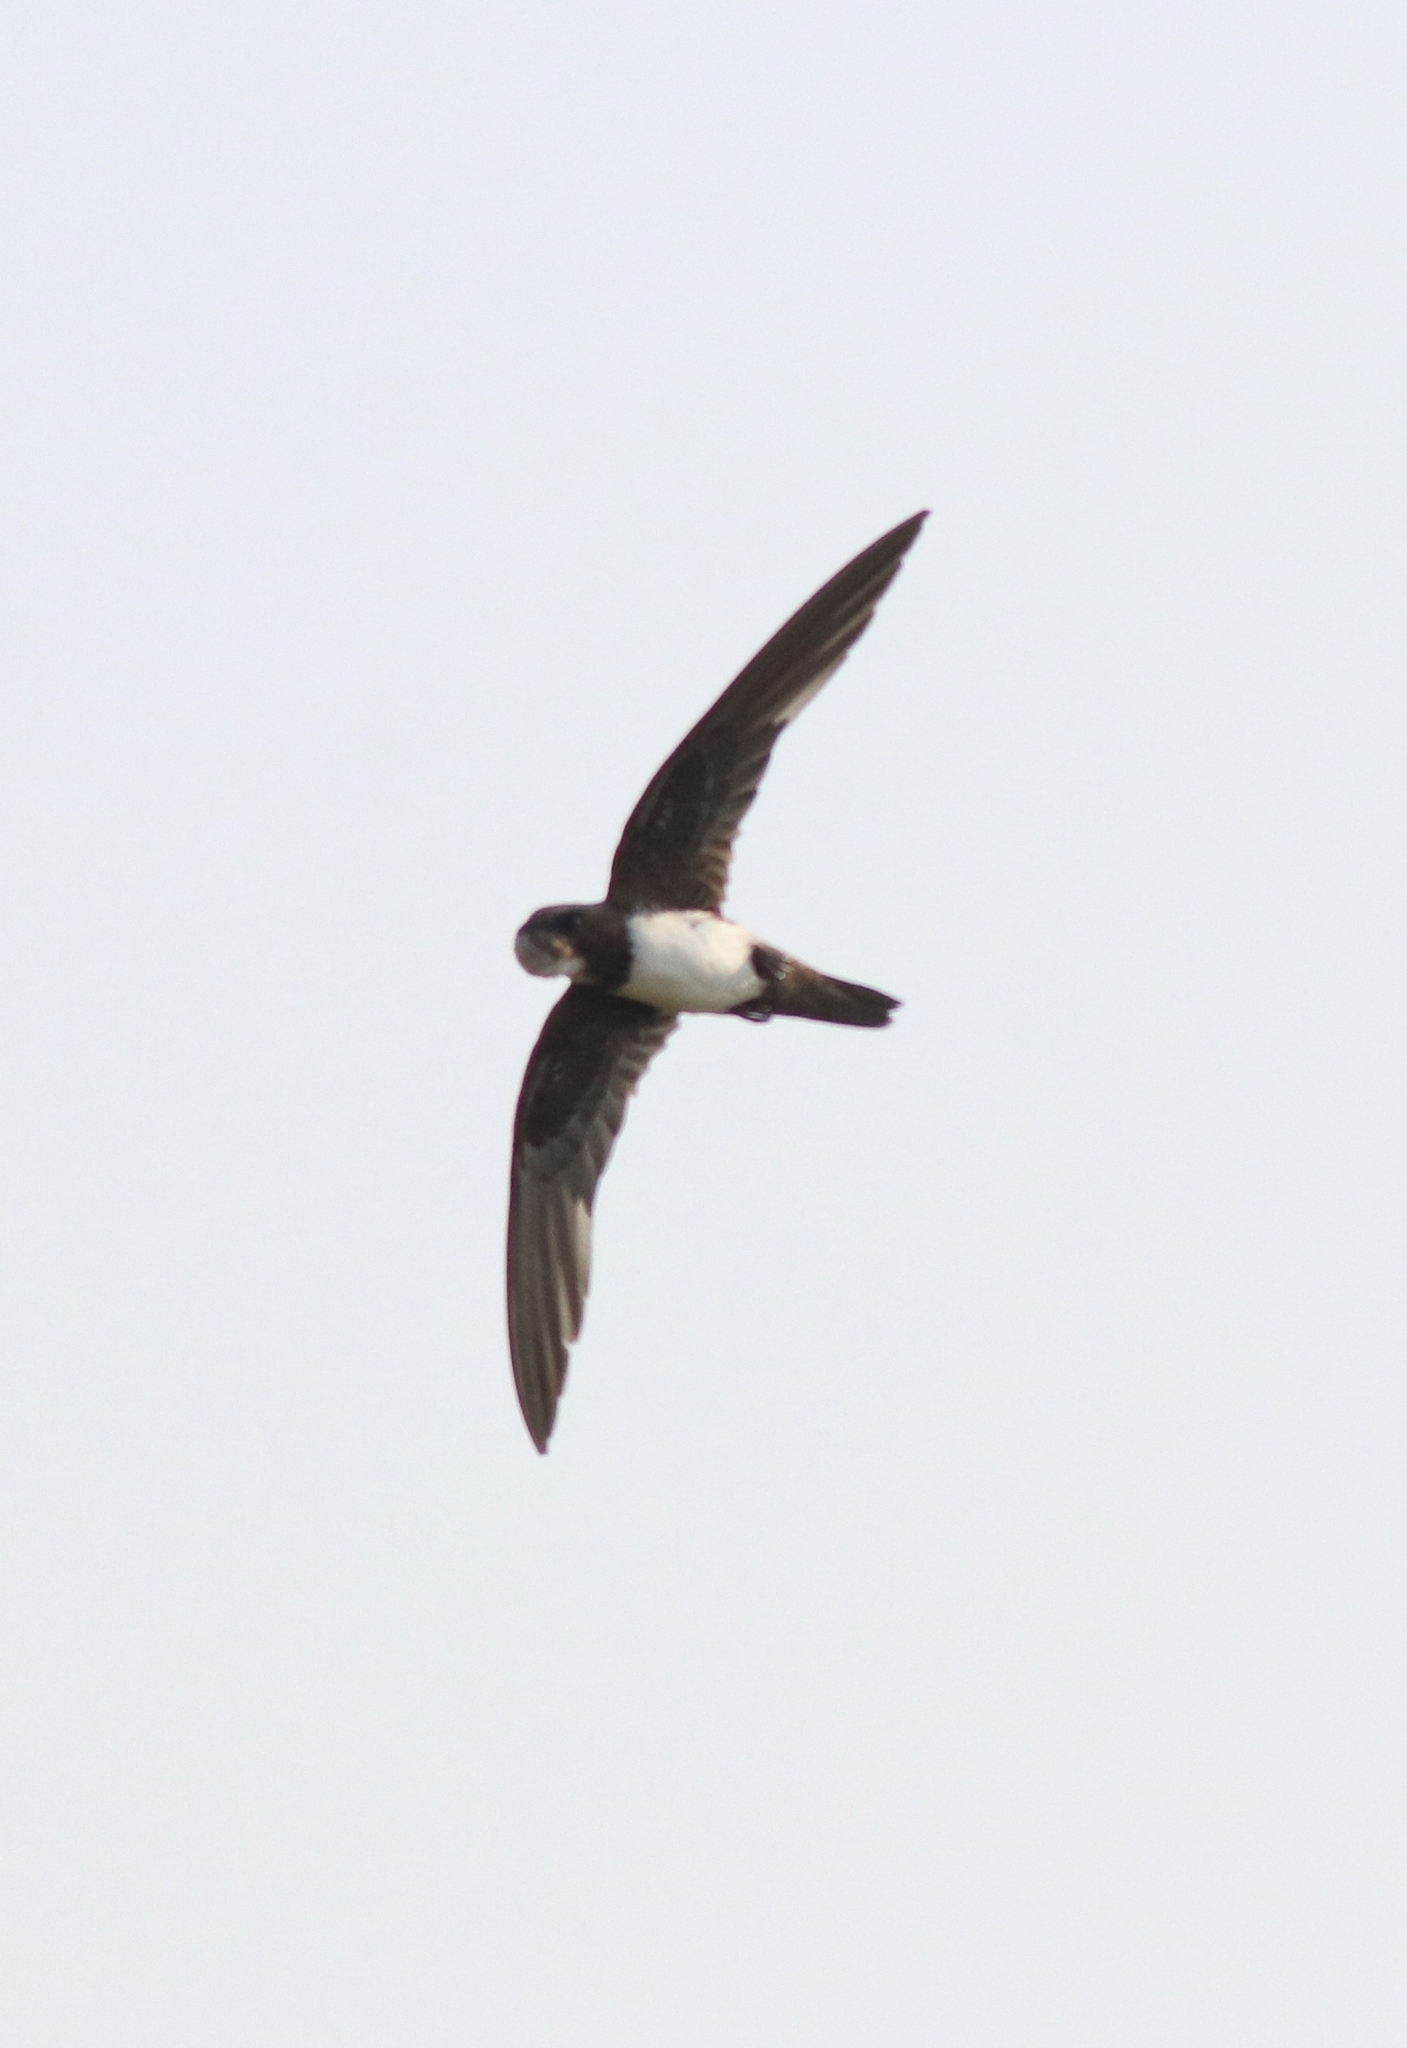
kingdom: Animalia
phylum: Chordata
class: Aves
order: Apodiformes
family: Apodidae
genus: Tachymarptis
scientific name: Tachymarptis melba
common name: Alpine swift
